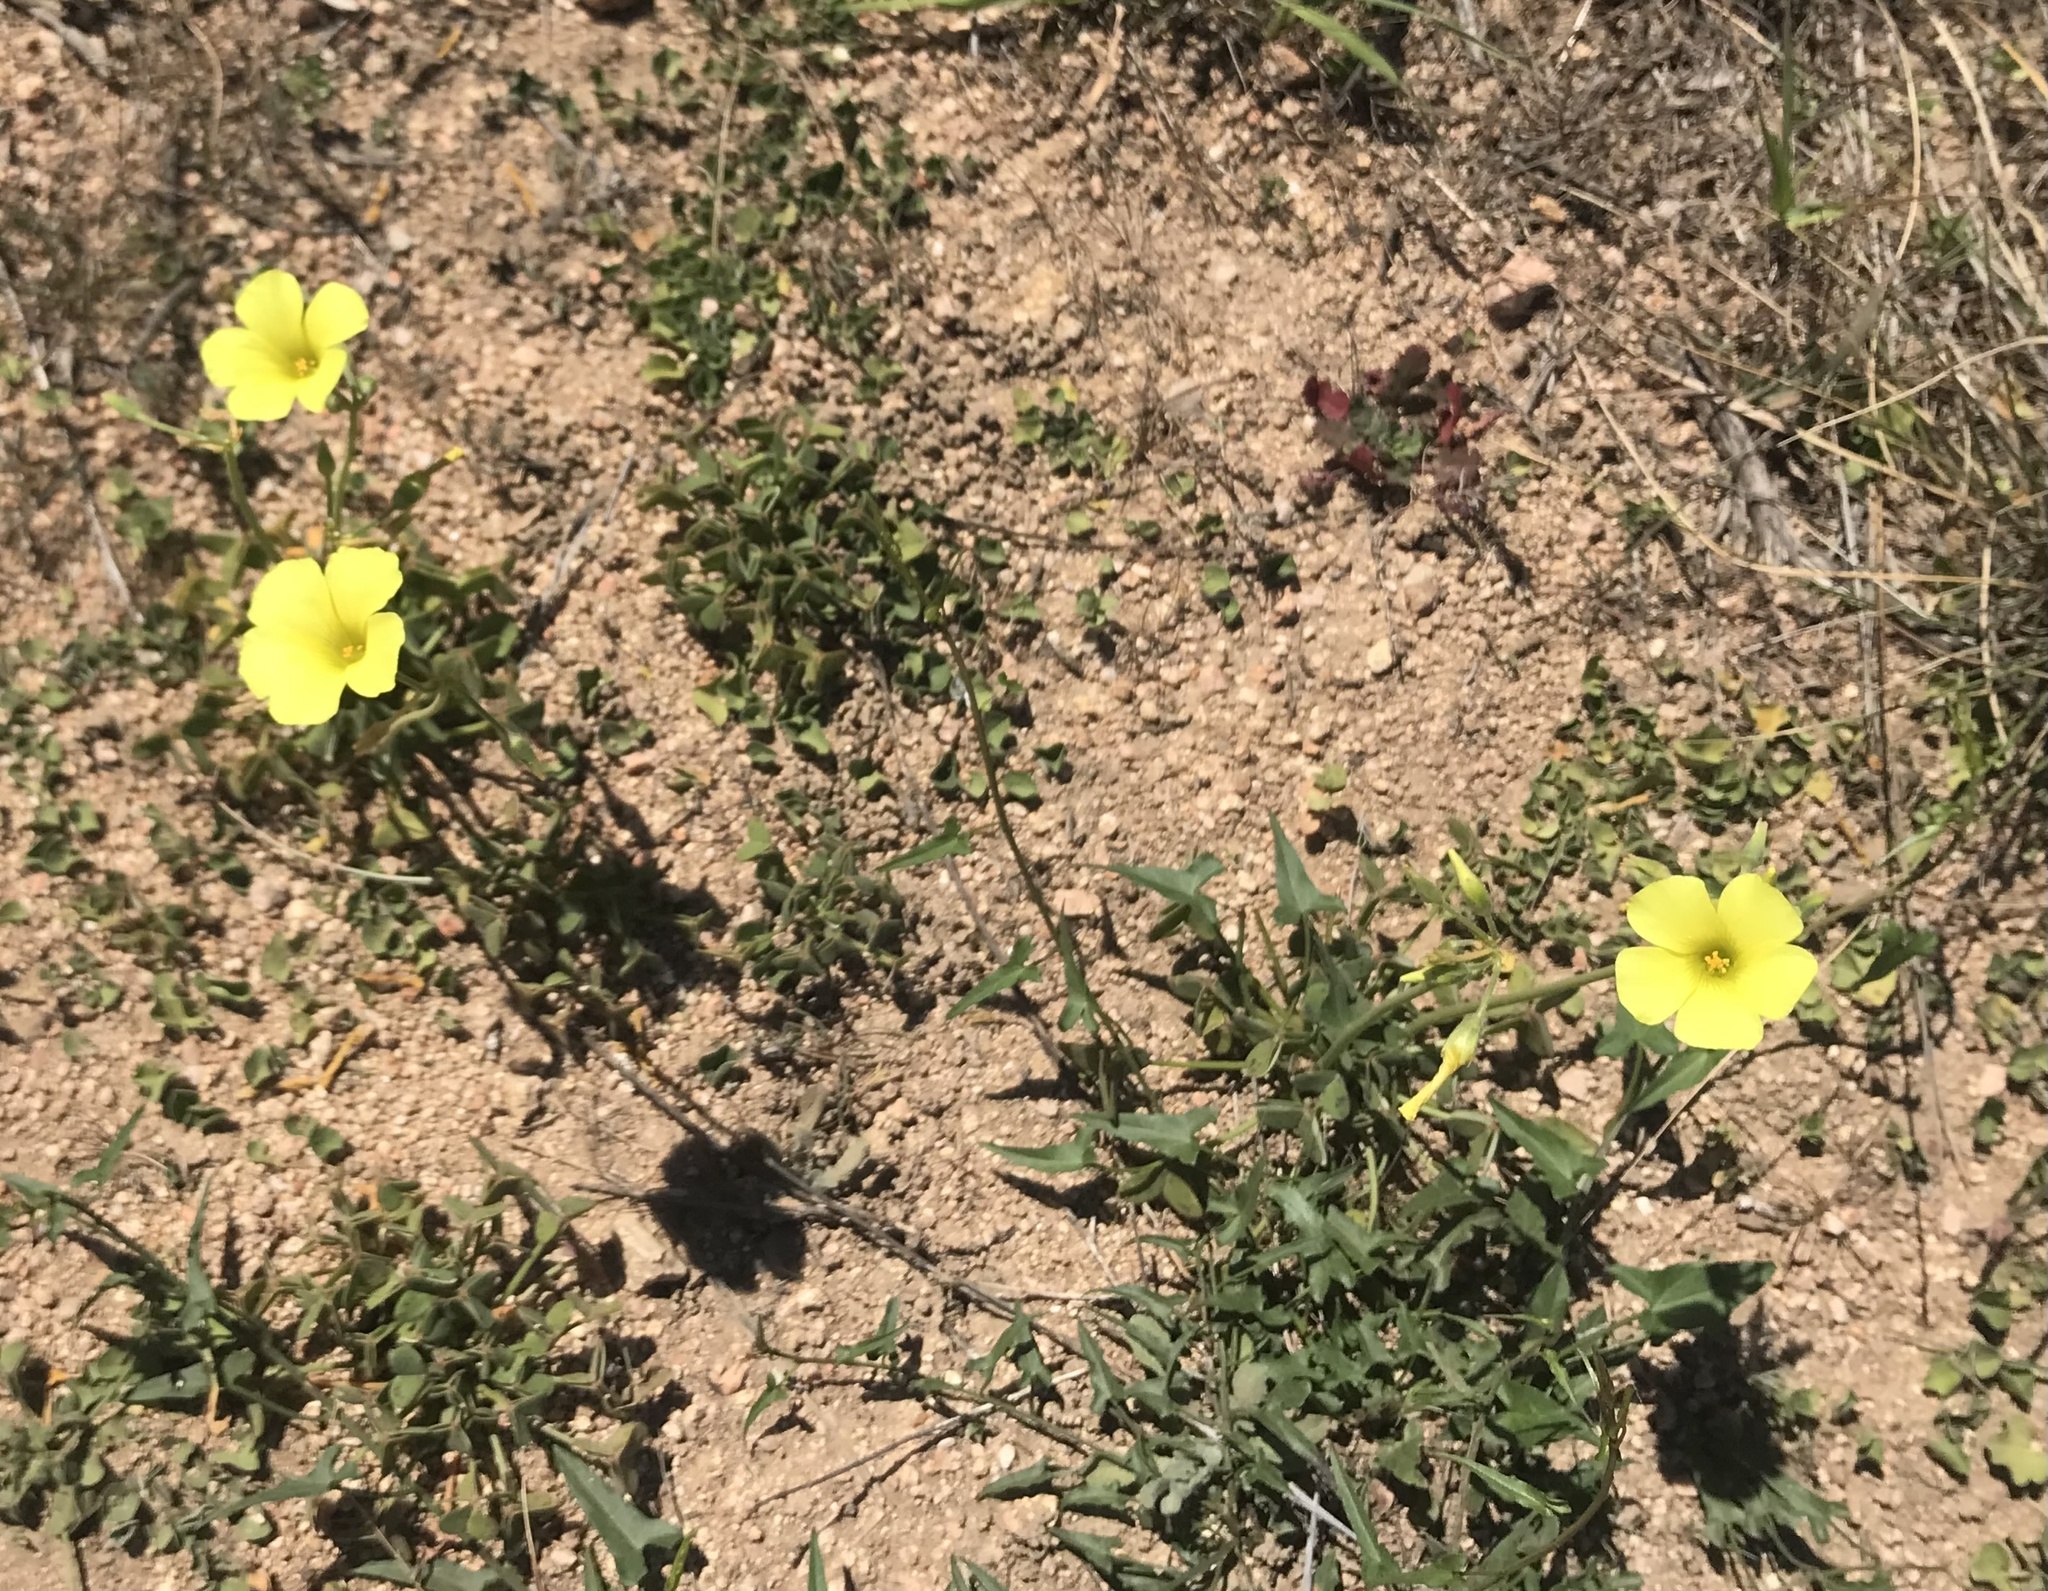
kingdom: Plantae
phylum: Tracheophyta
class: Magnoliopsida
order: Oxalidales
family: Oxalidaceae
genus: Oxalis
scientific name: Oxalis pes-caprae
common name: Bermuda-buttercup
